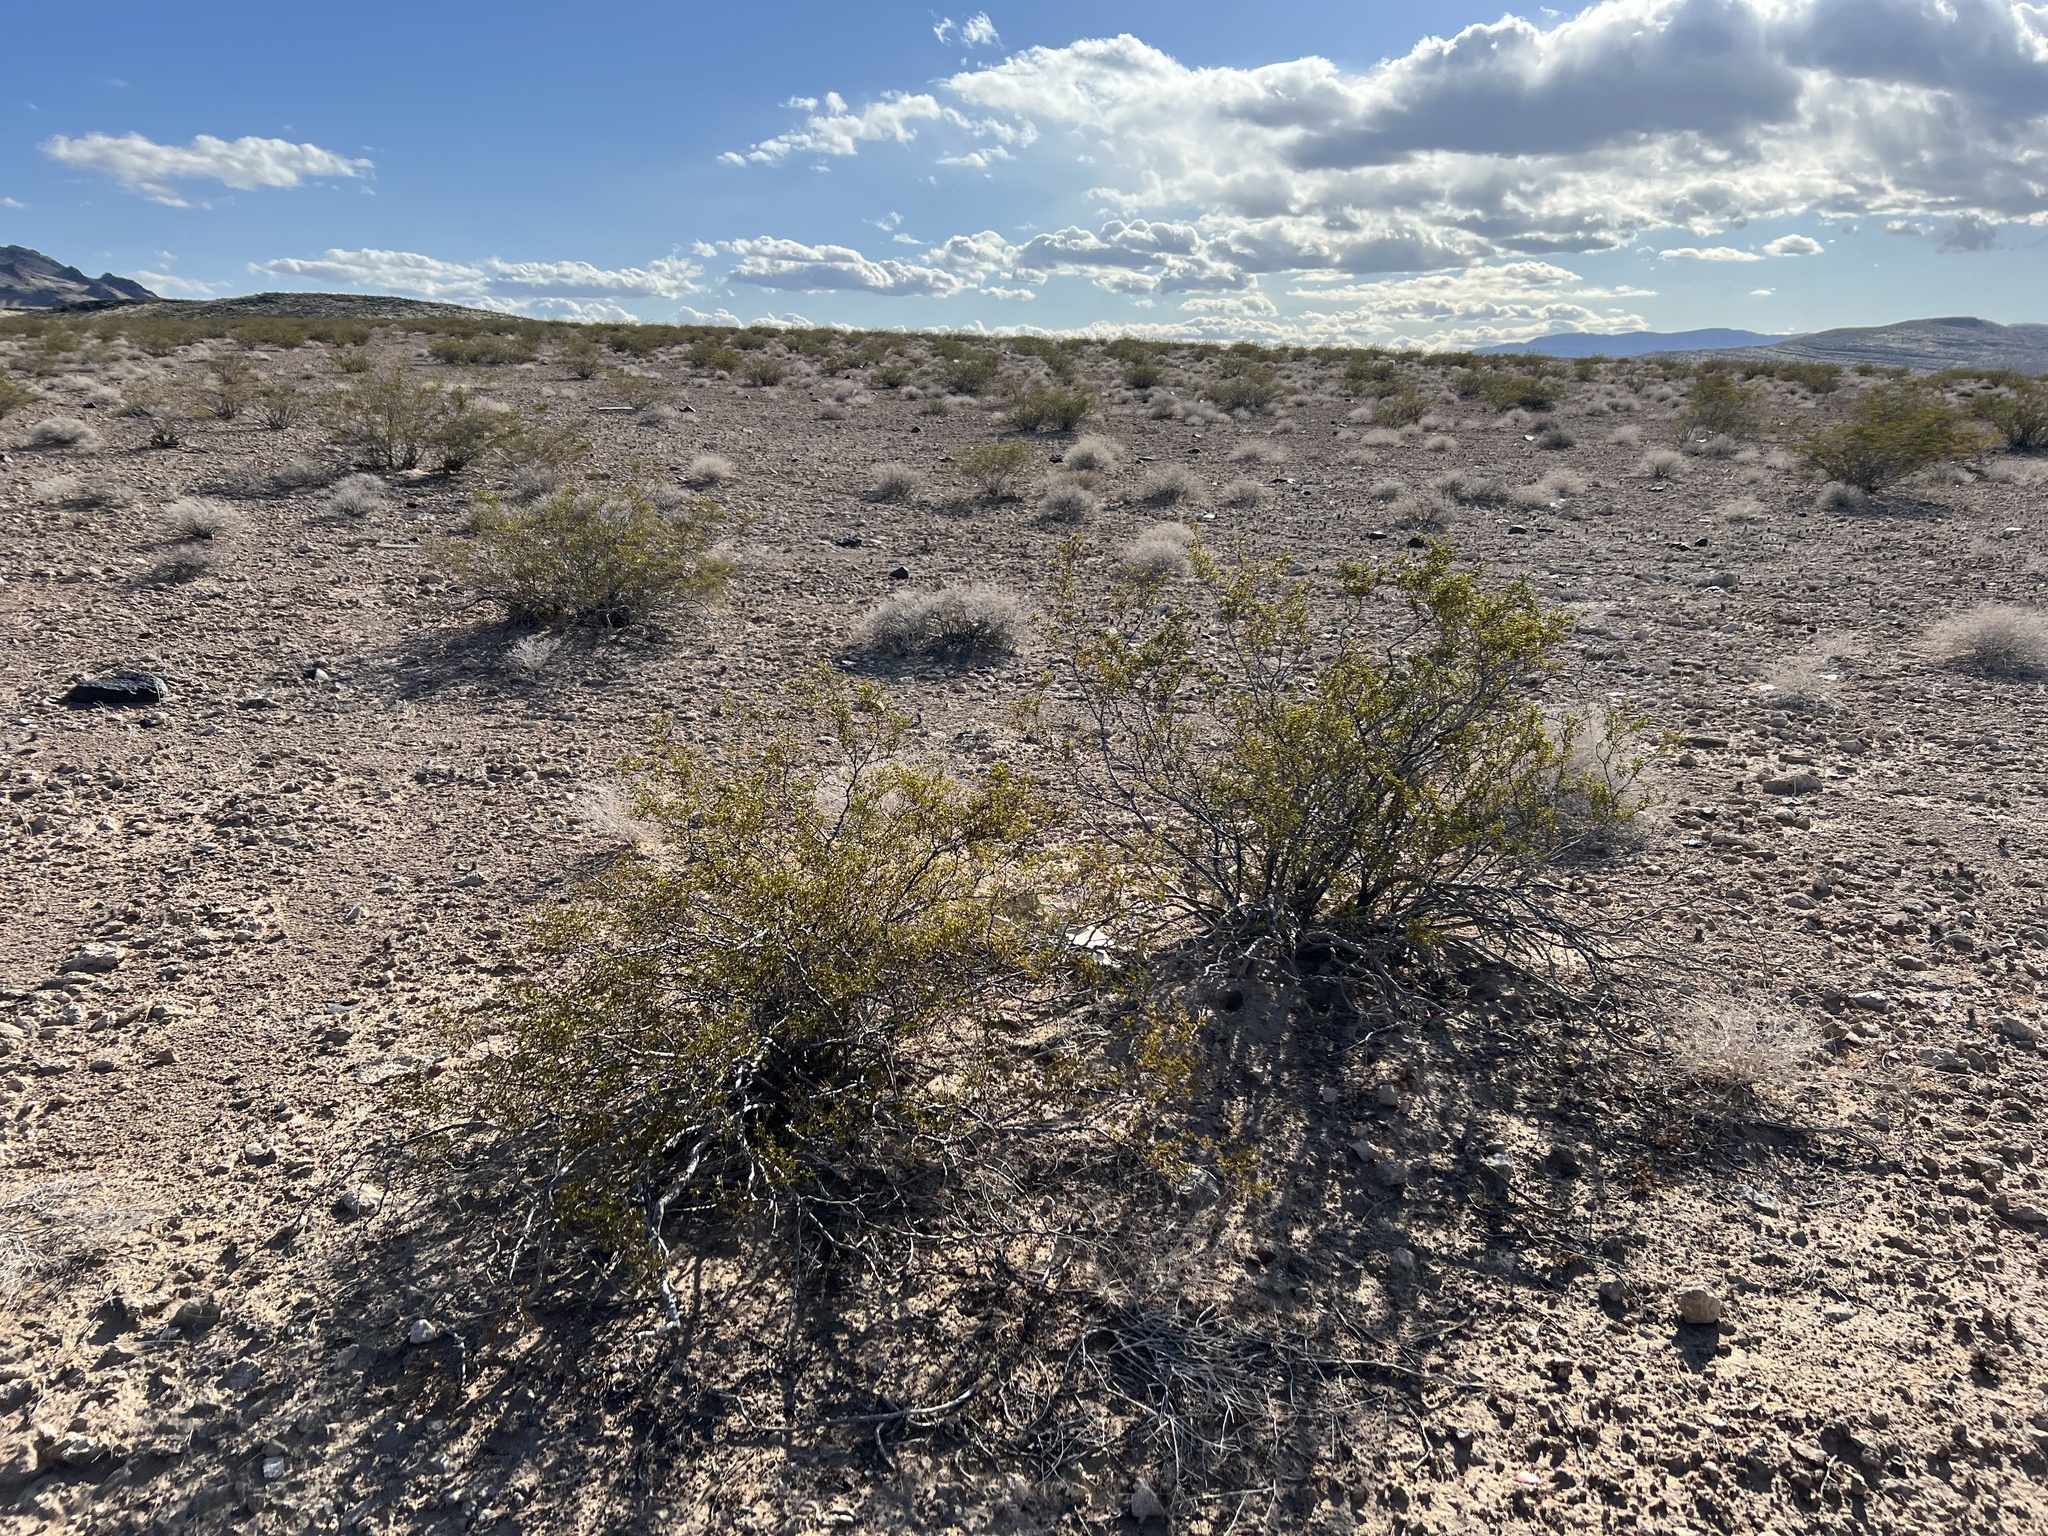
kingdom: Plantae
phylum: Tracheophyta
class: Magnoliopsida
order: Zygophyllales
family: Zygophyllaceae
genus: Larrea
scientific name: Larrea tridentata
